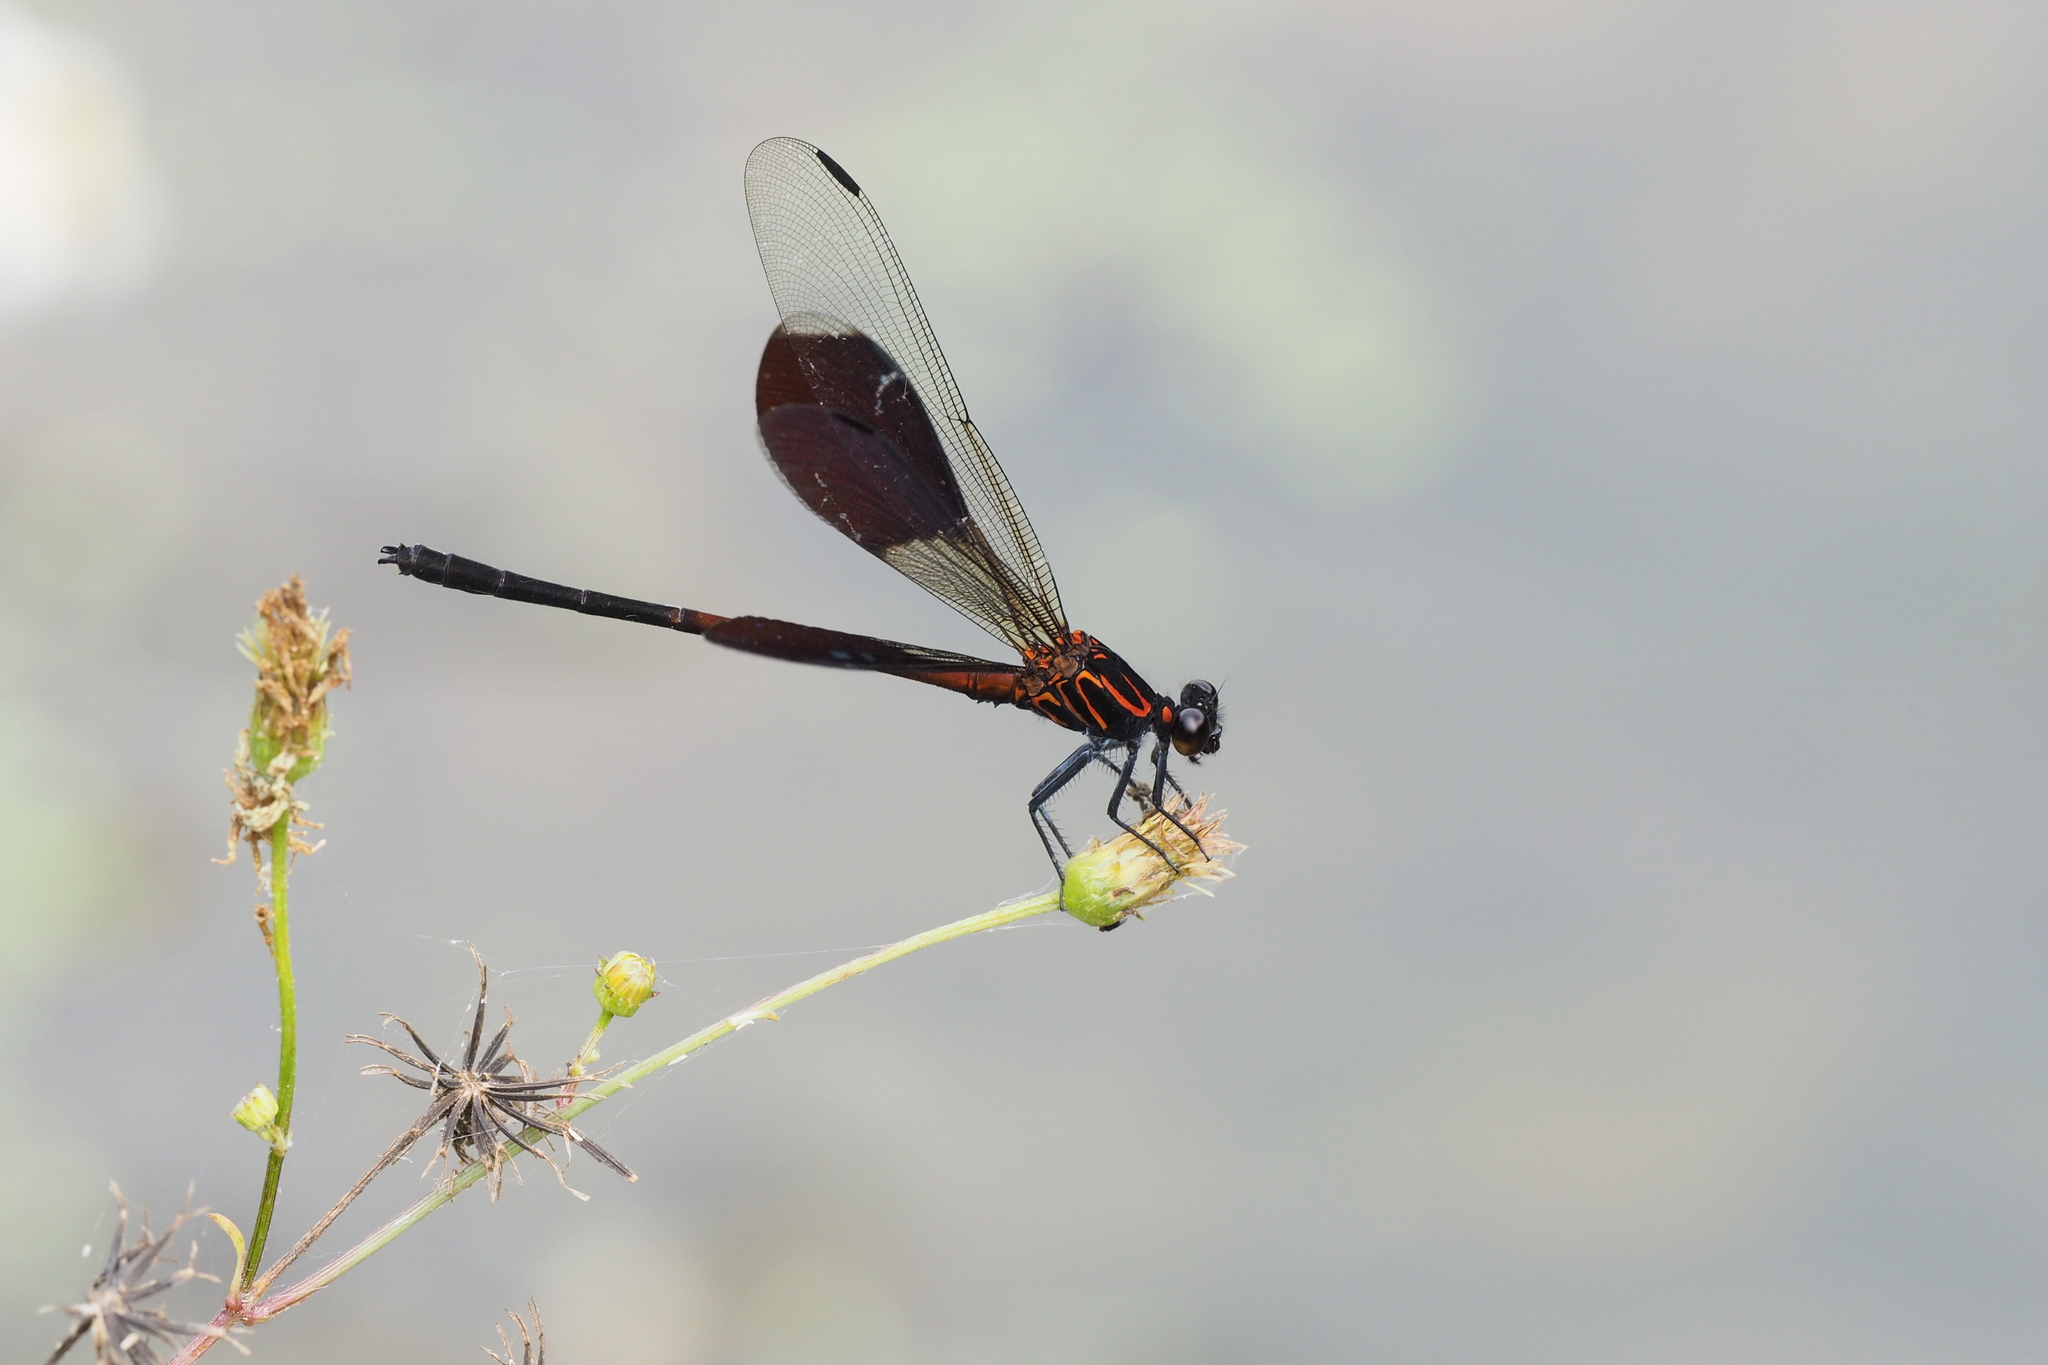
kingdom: Animalia
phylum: Arthropoda
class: Insecta
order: Odonata
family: Euphaeidae
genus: Euphaea
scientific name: Euphaea formosa
